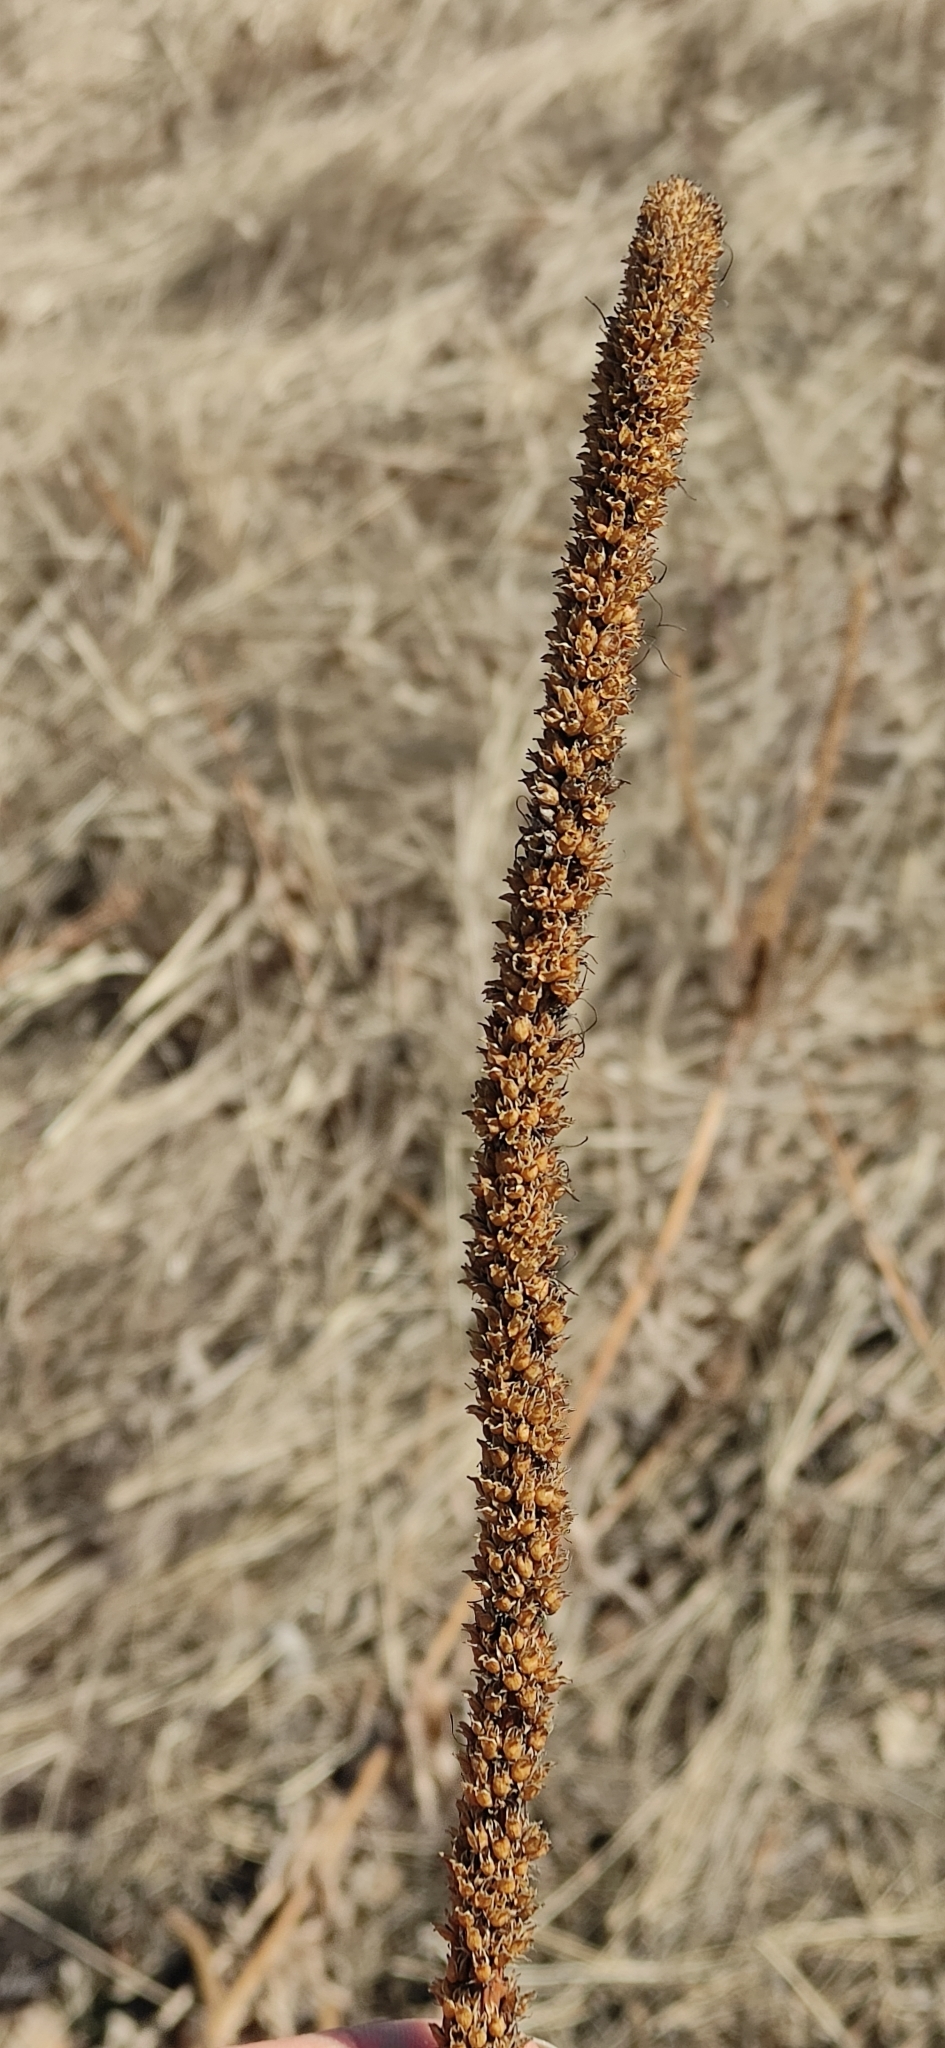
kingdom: Plantae
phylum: Tracheophyta
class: Magnoliopsida
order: Lamiales
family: Plantaginaceae
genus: Veronicastrum
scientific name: Veronicastrum sibiricum
